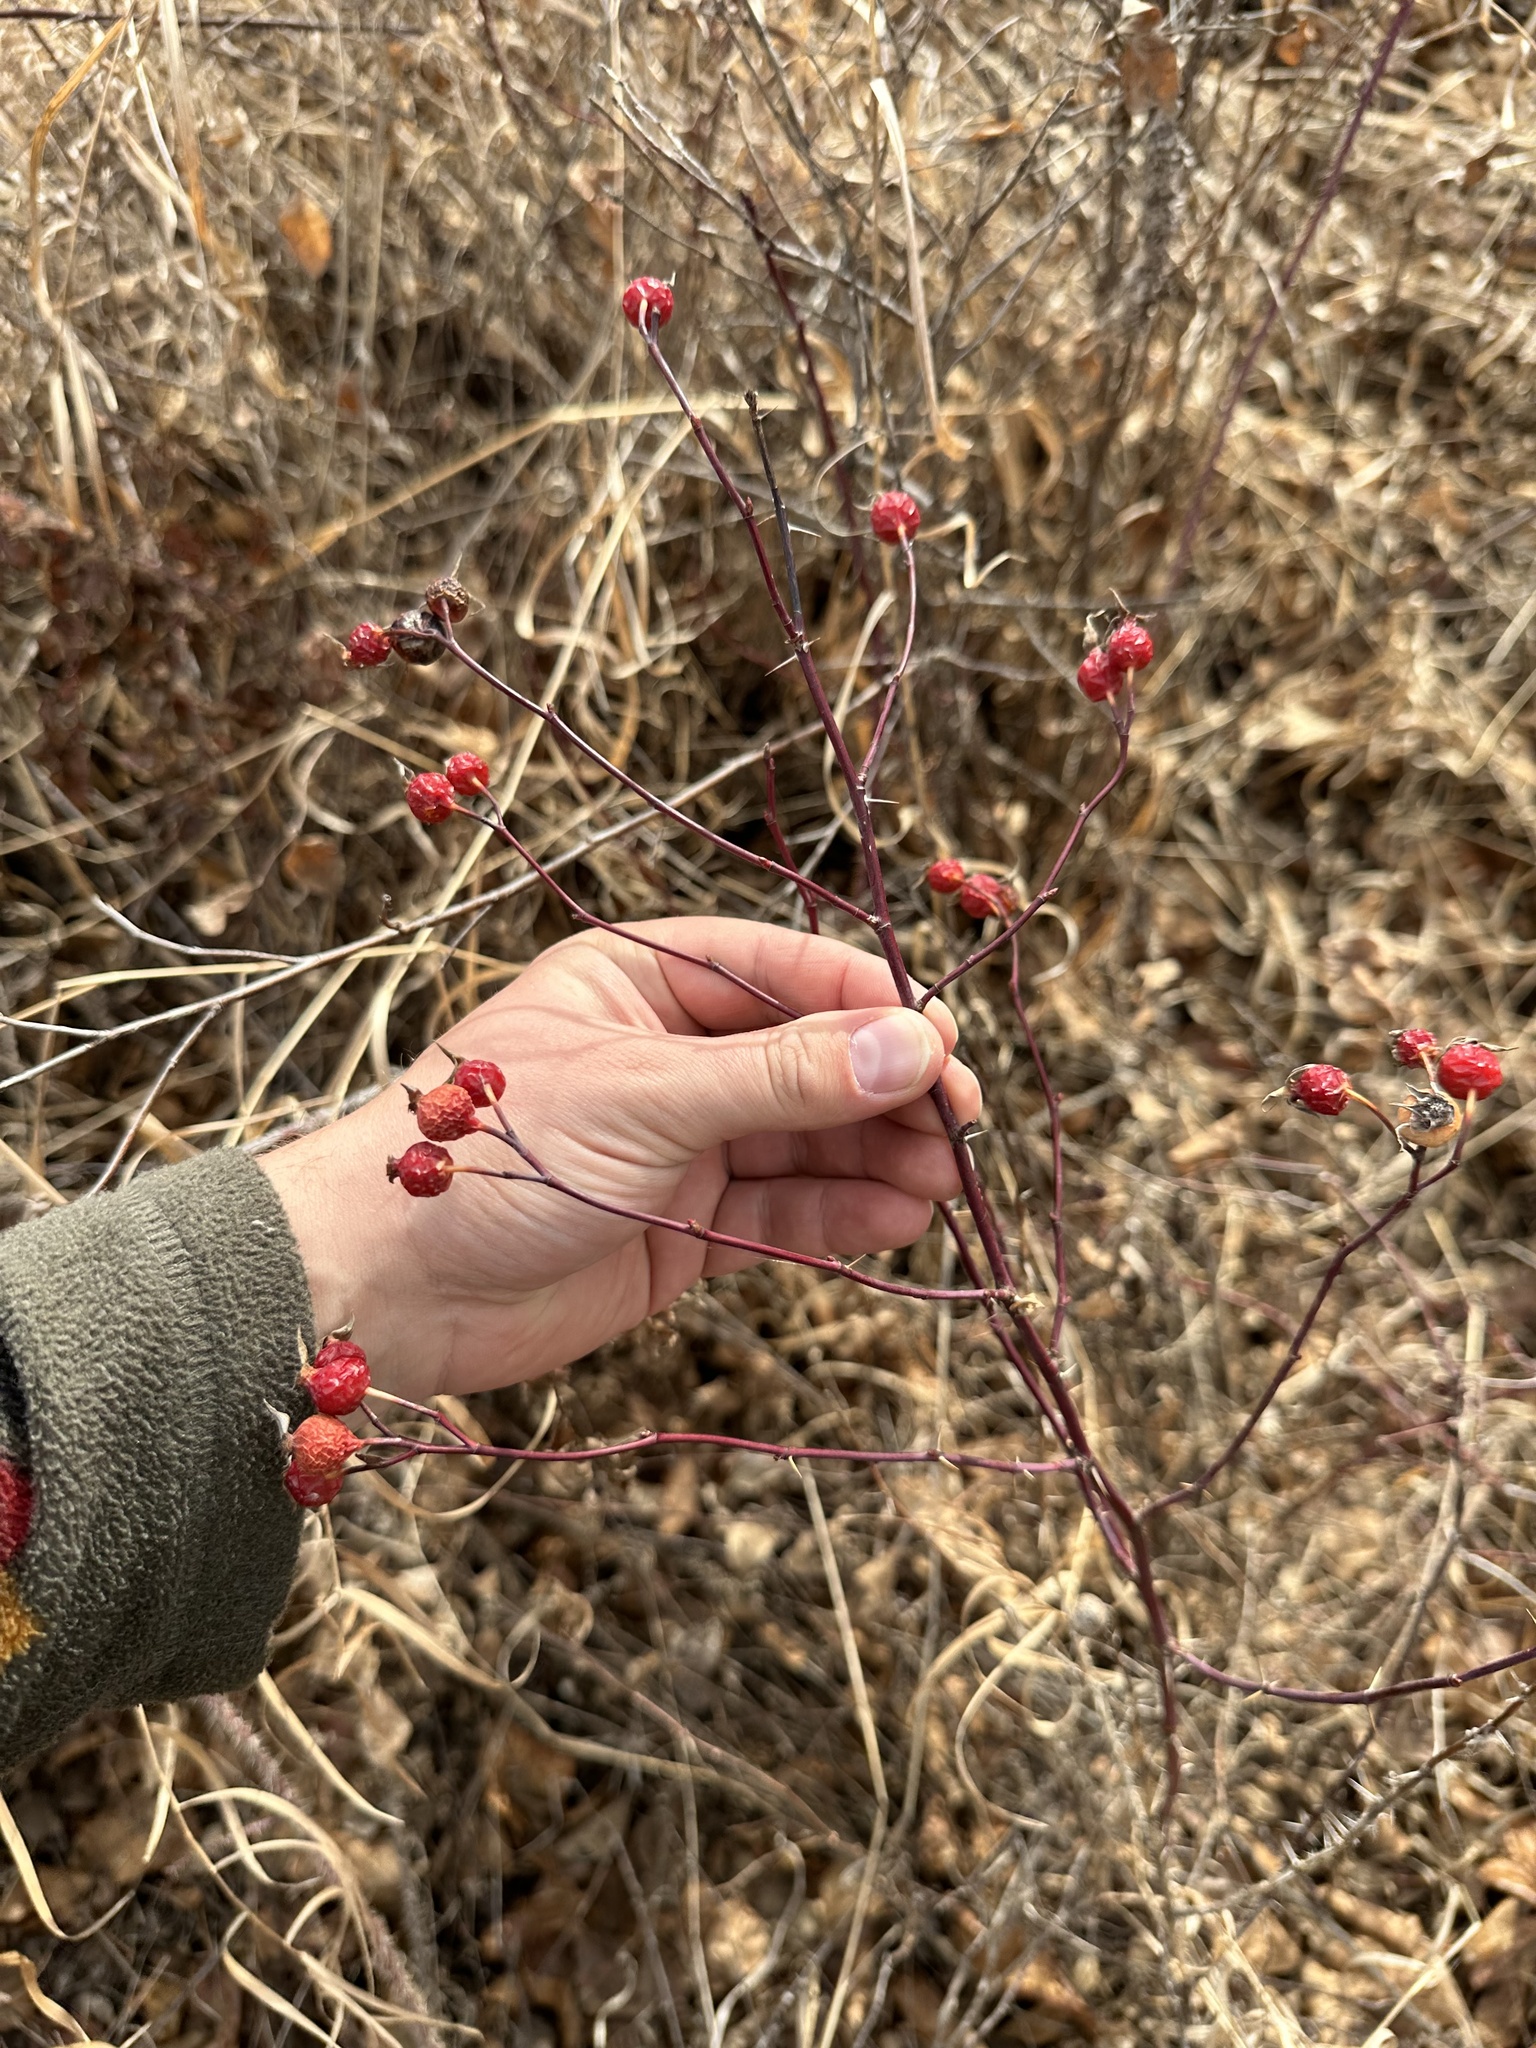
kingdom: Plantae
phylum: Tracheophyta
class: Magnoliopsida
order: Rosales
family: Rosaceae
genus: Rosa
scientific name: Rosa woodsii
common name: Woods's rose
